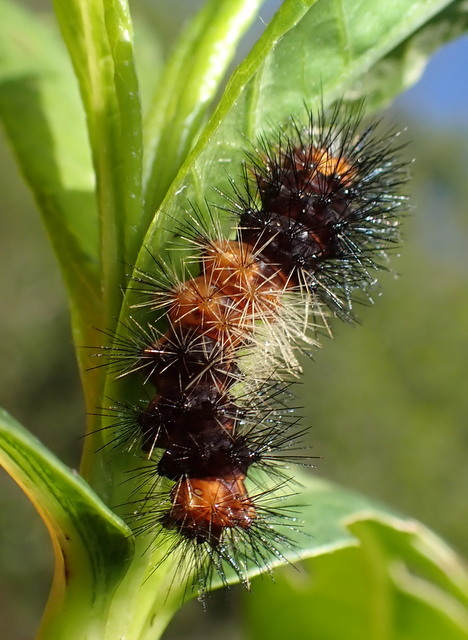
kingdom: Animalia
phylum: Arthropoda
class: Insecta
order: Lepidoptera
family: Erebidae
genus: Hypercompe
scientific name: Hypercompe scribonia
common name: Giant leopard moth
